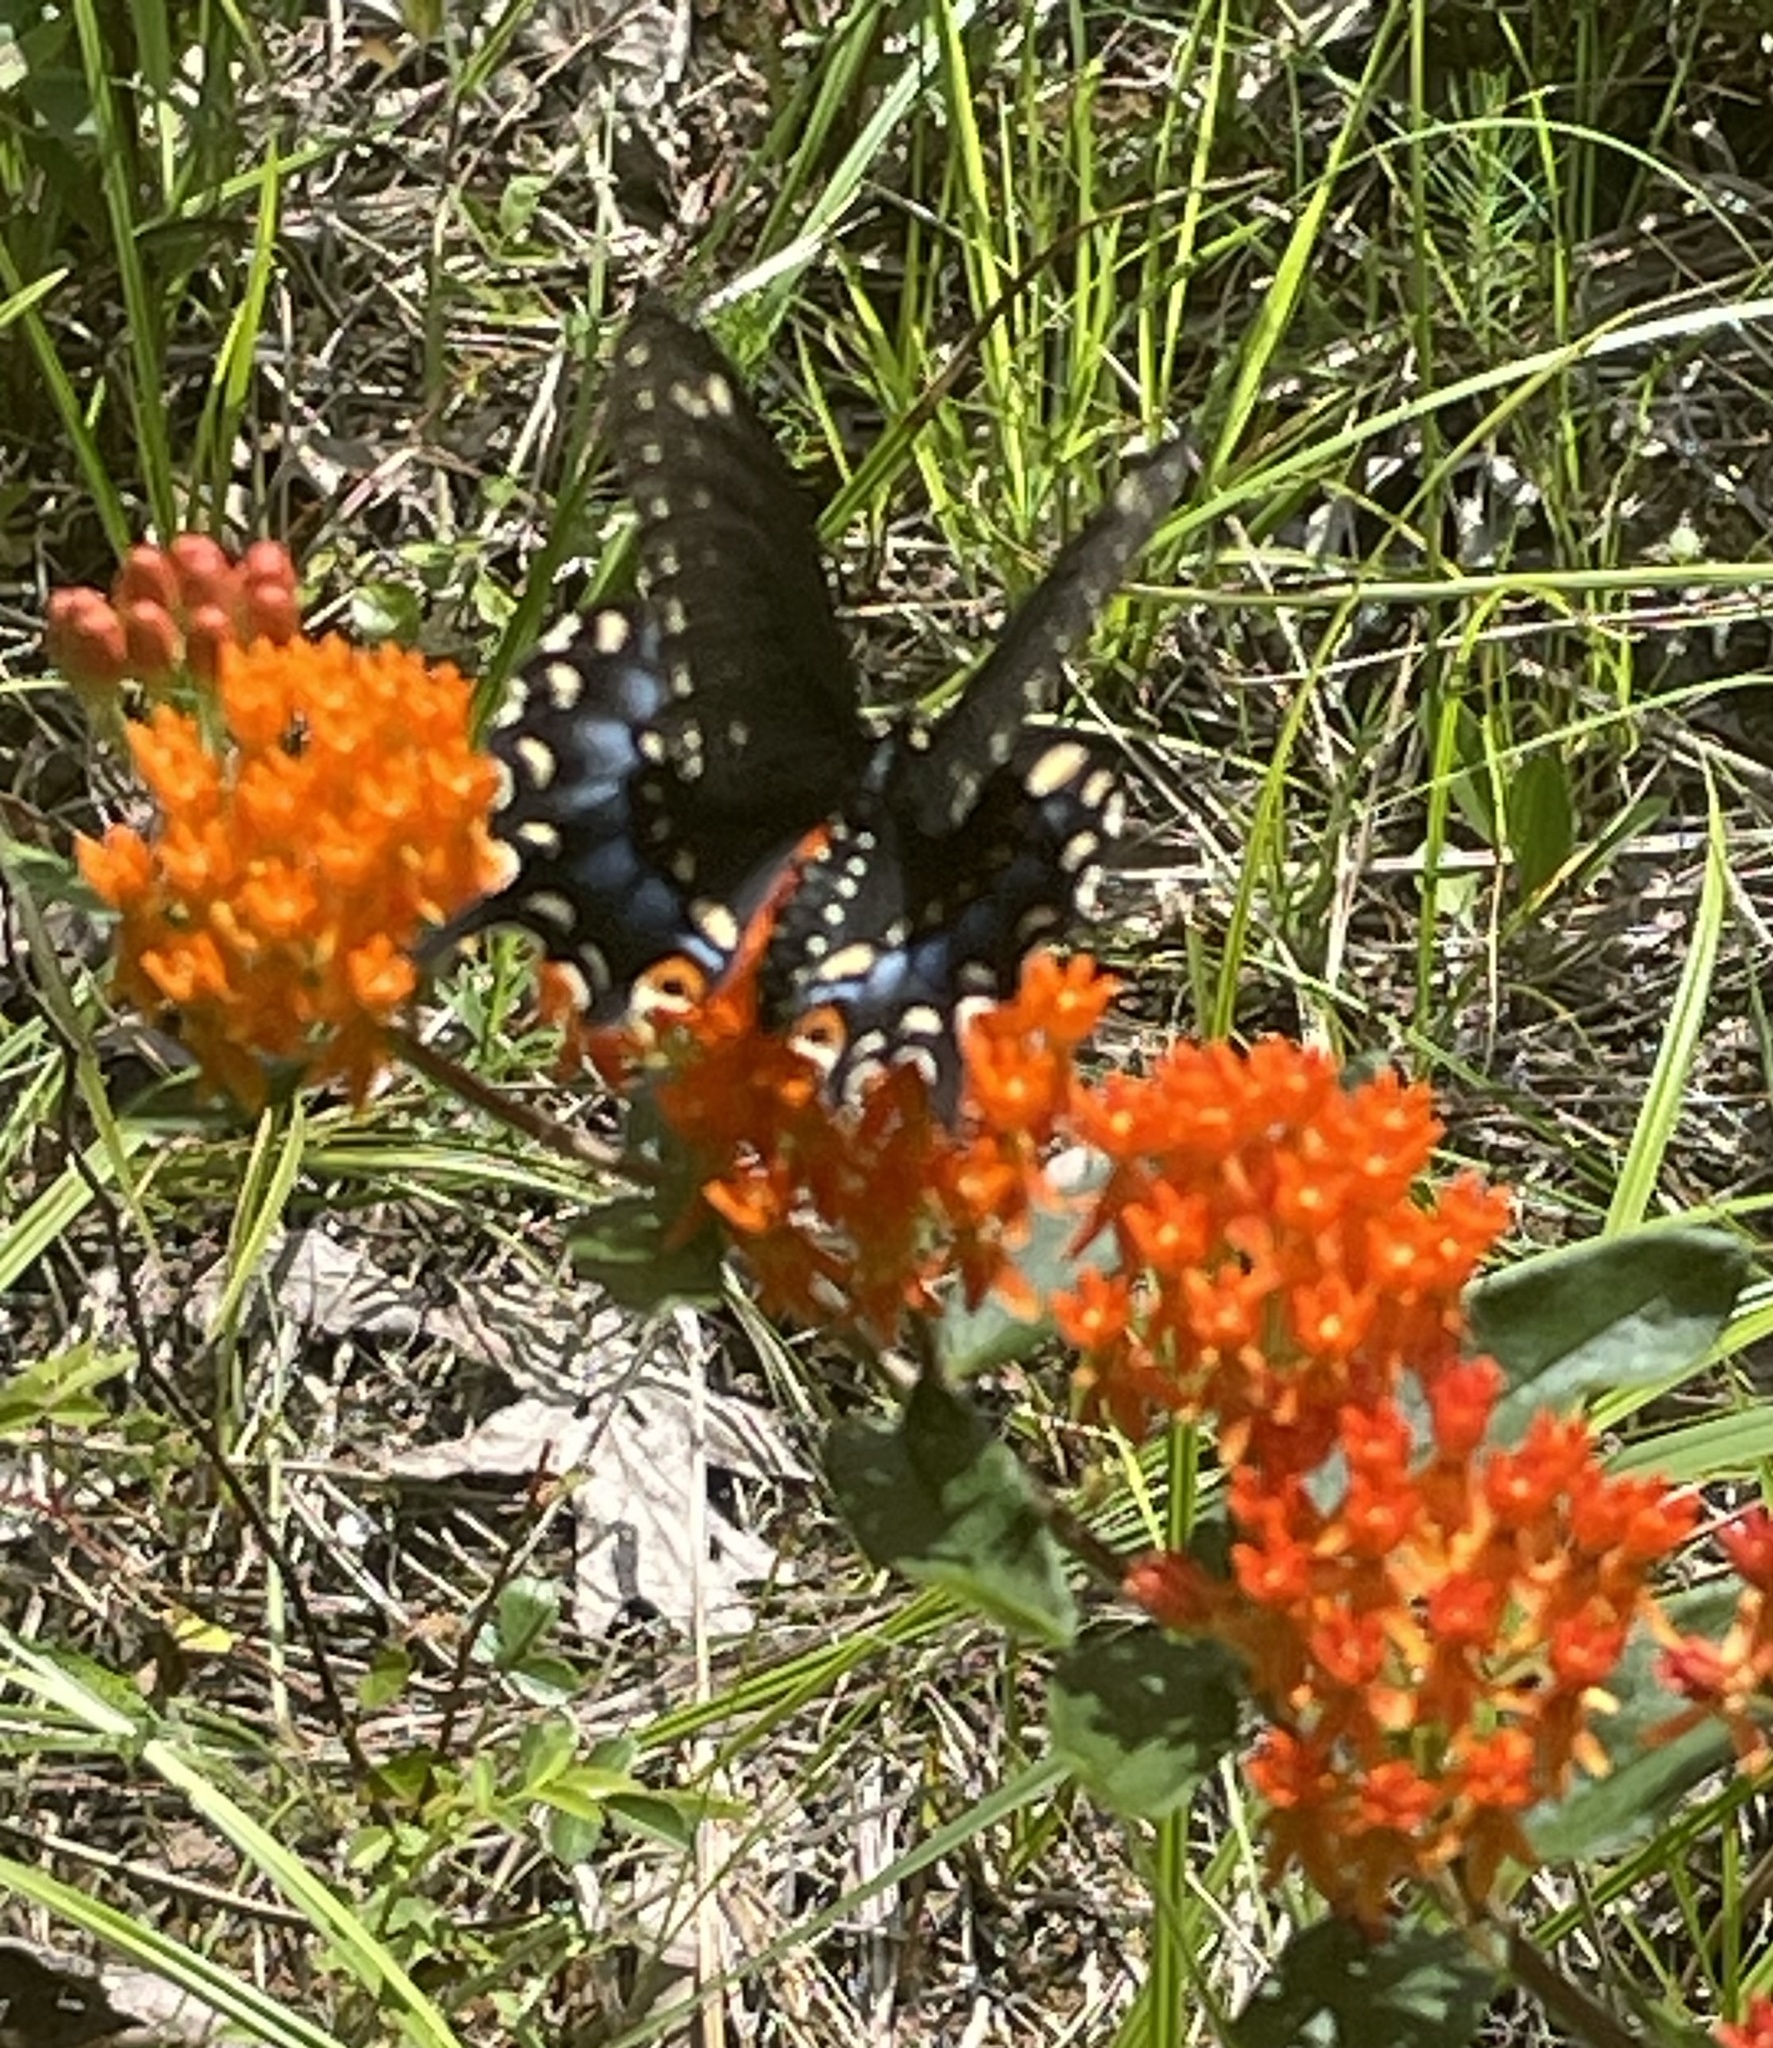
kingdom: Animalia
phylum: Arthropoda
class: Insecta
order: Lepidoptera
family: Papilionidae
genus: Papilio
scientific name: Papilio polyxenes
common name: Black swallowtail
